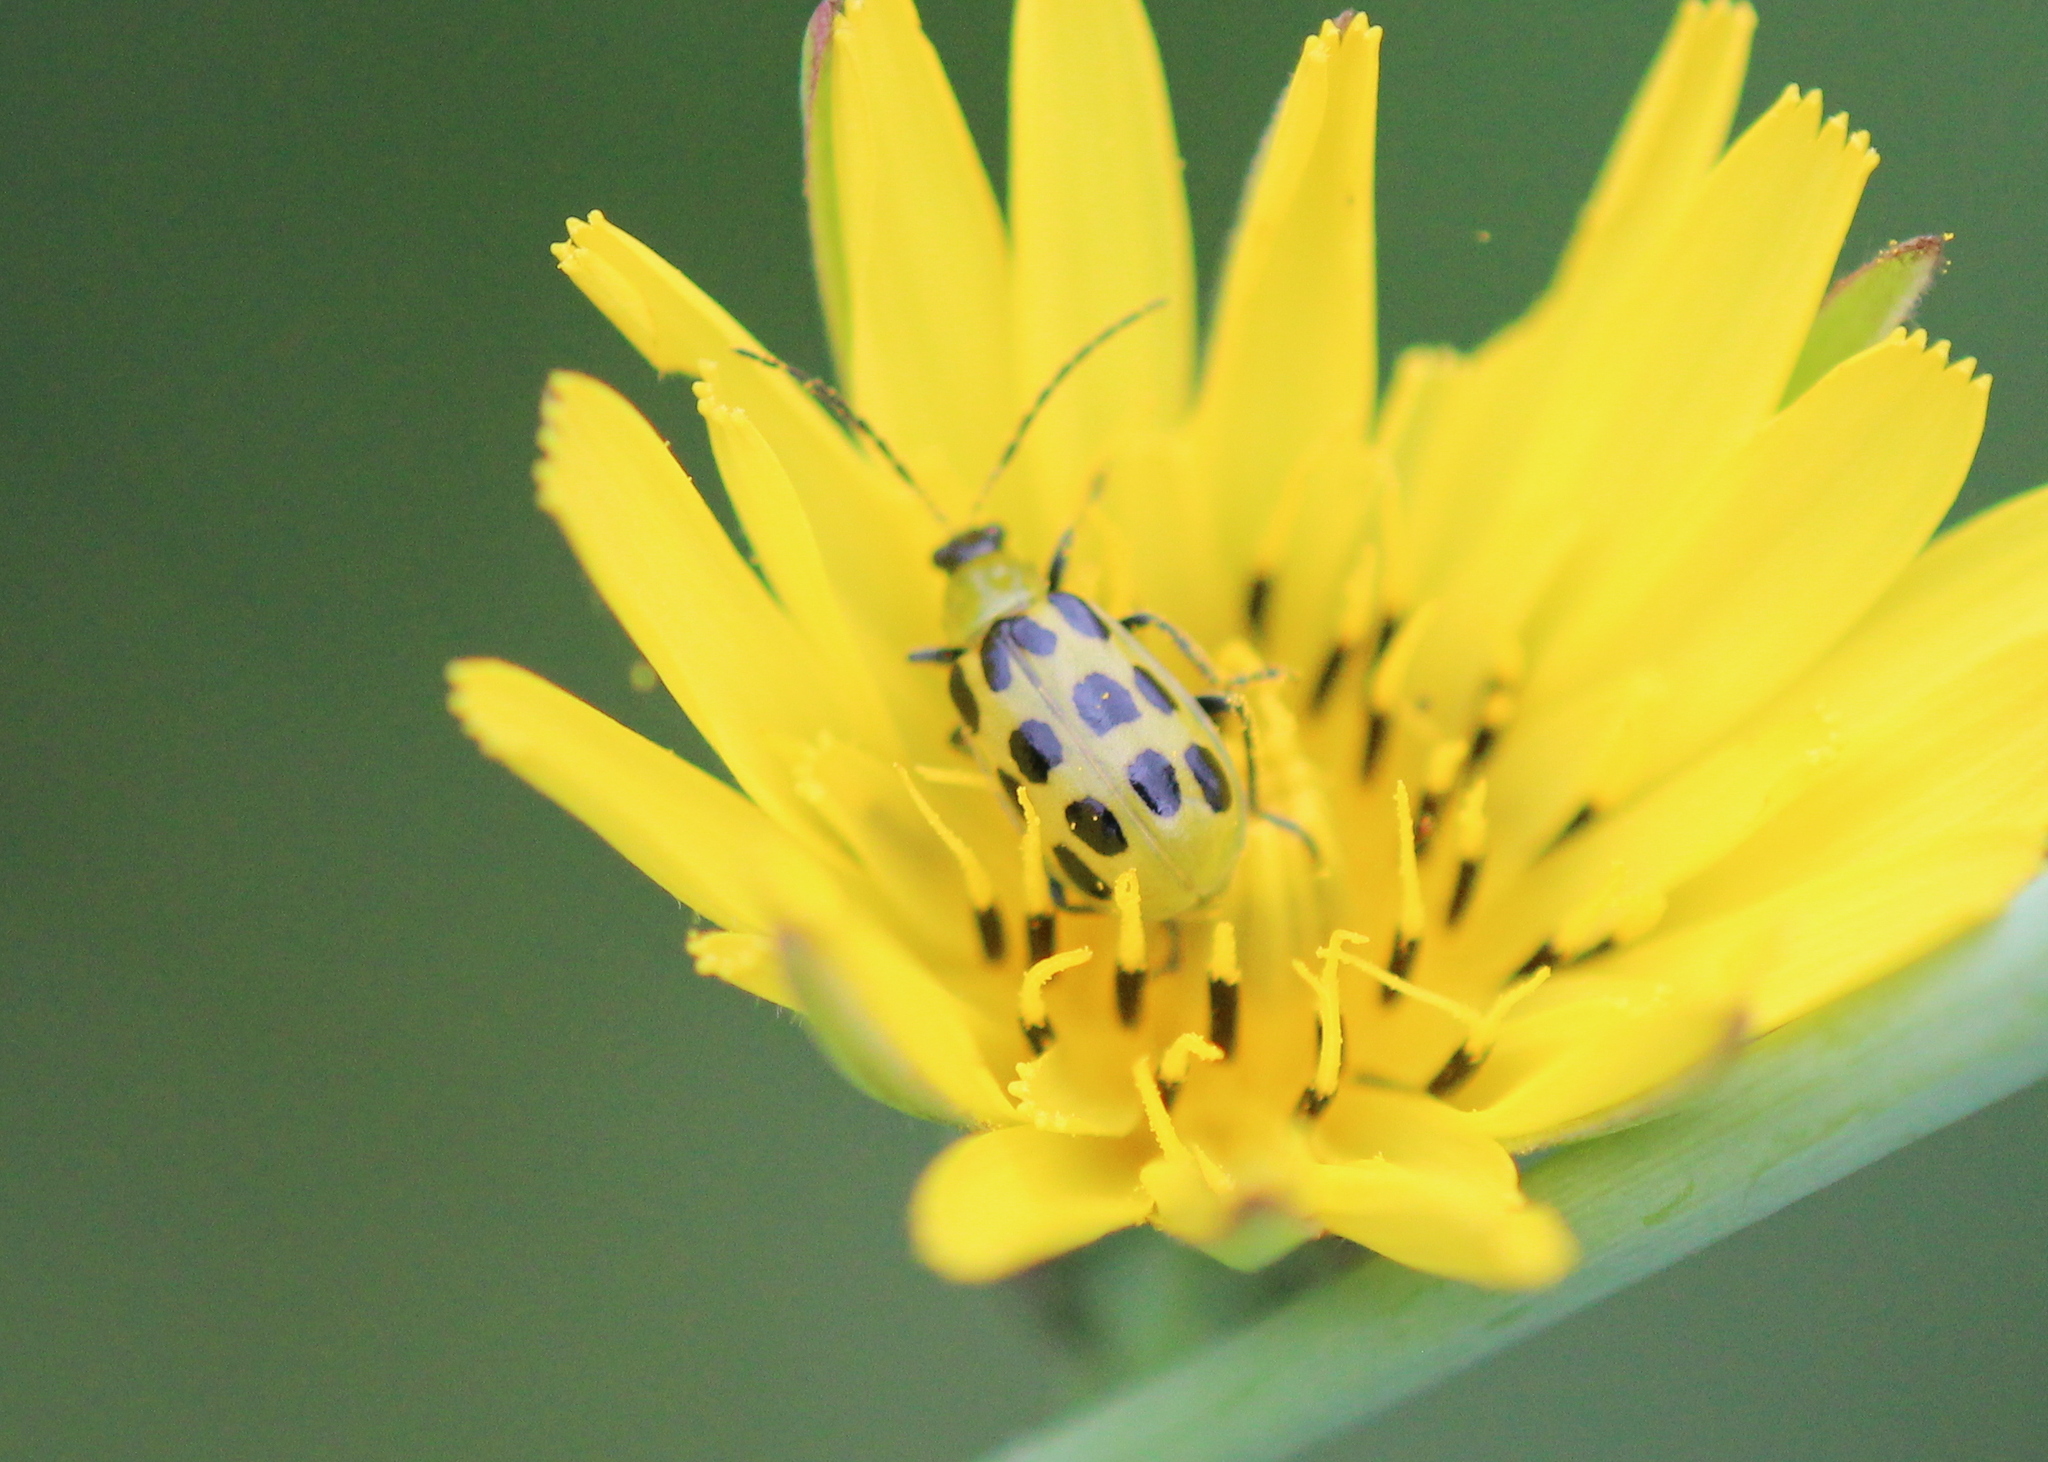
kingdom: Animalia
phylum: Arthropoda
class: Insecta
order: Coleoptera
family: Chrysomelidae
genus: Diabrotica
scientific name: Diabrotica undecimpunctata
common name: Spotted cucumber beetle
